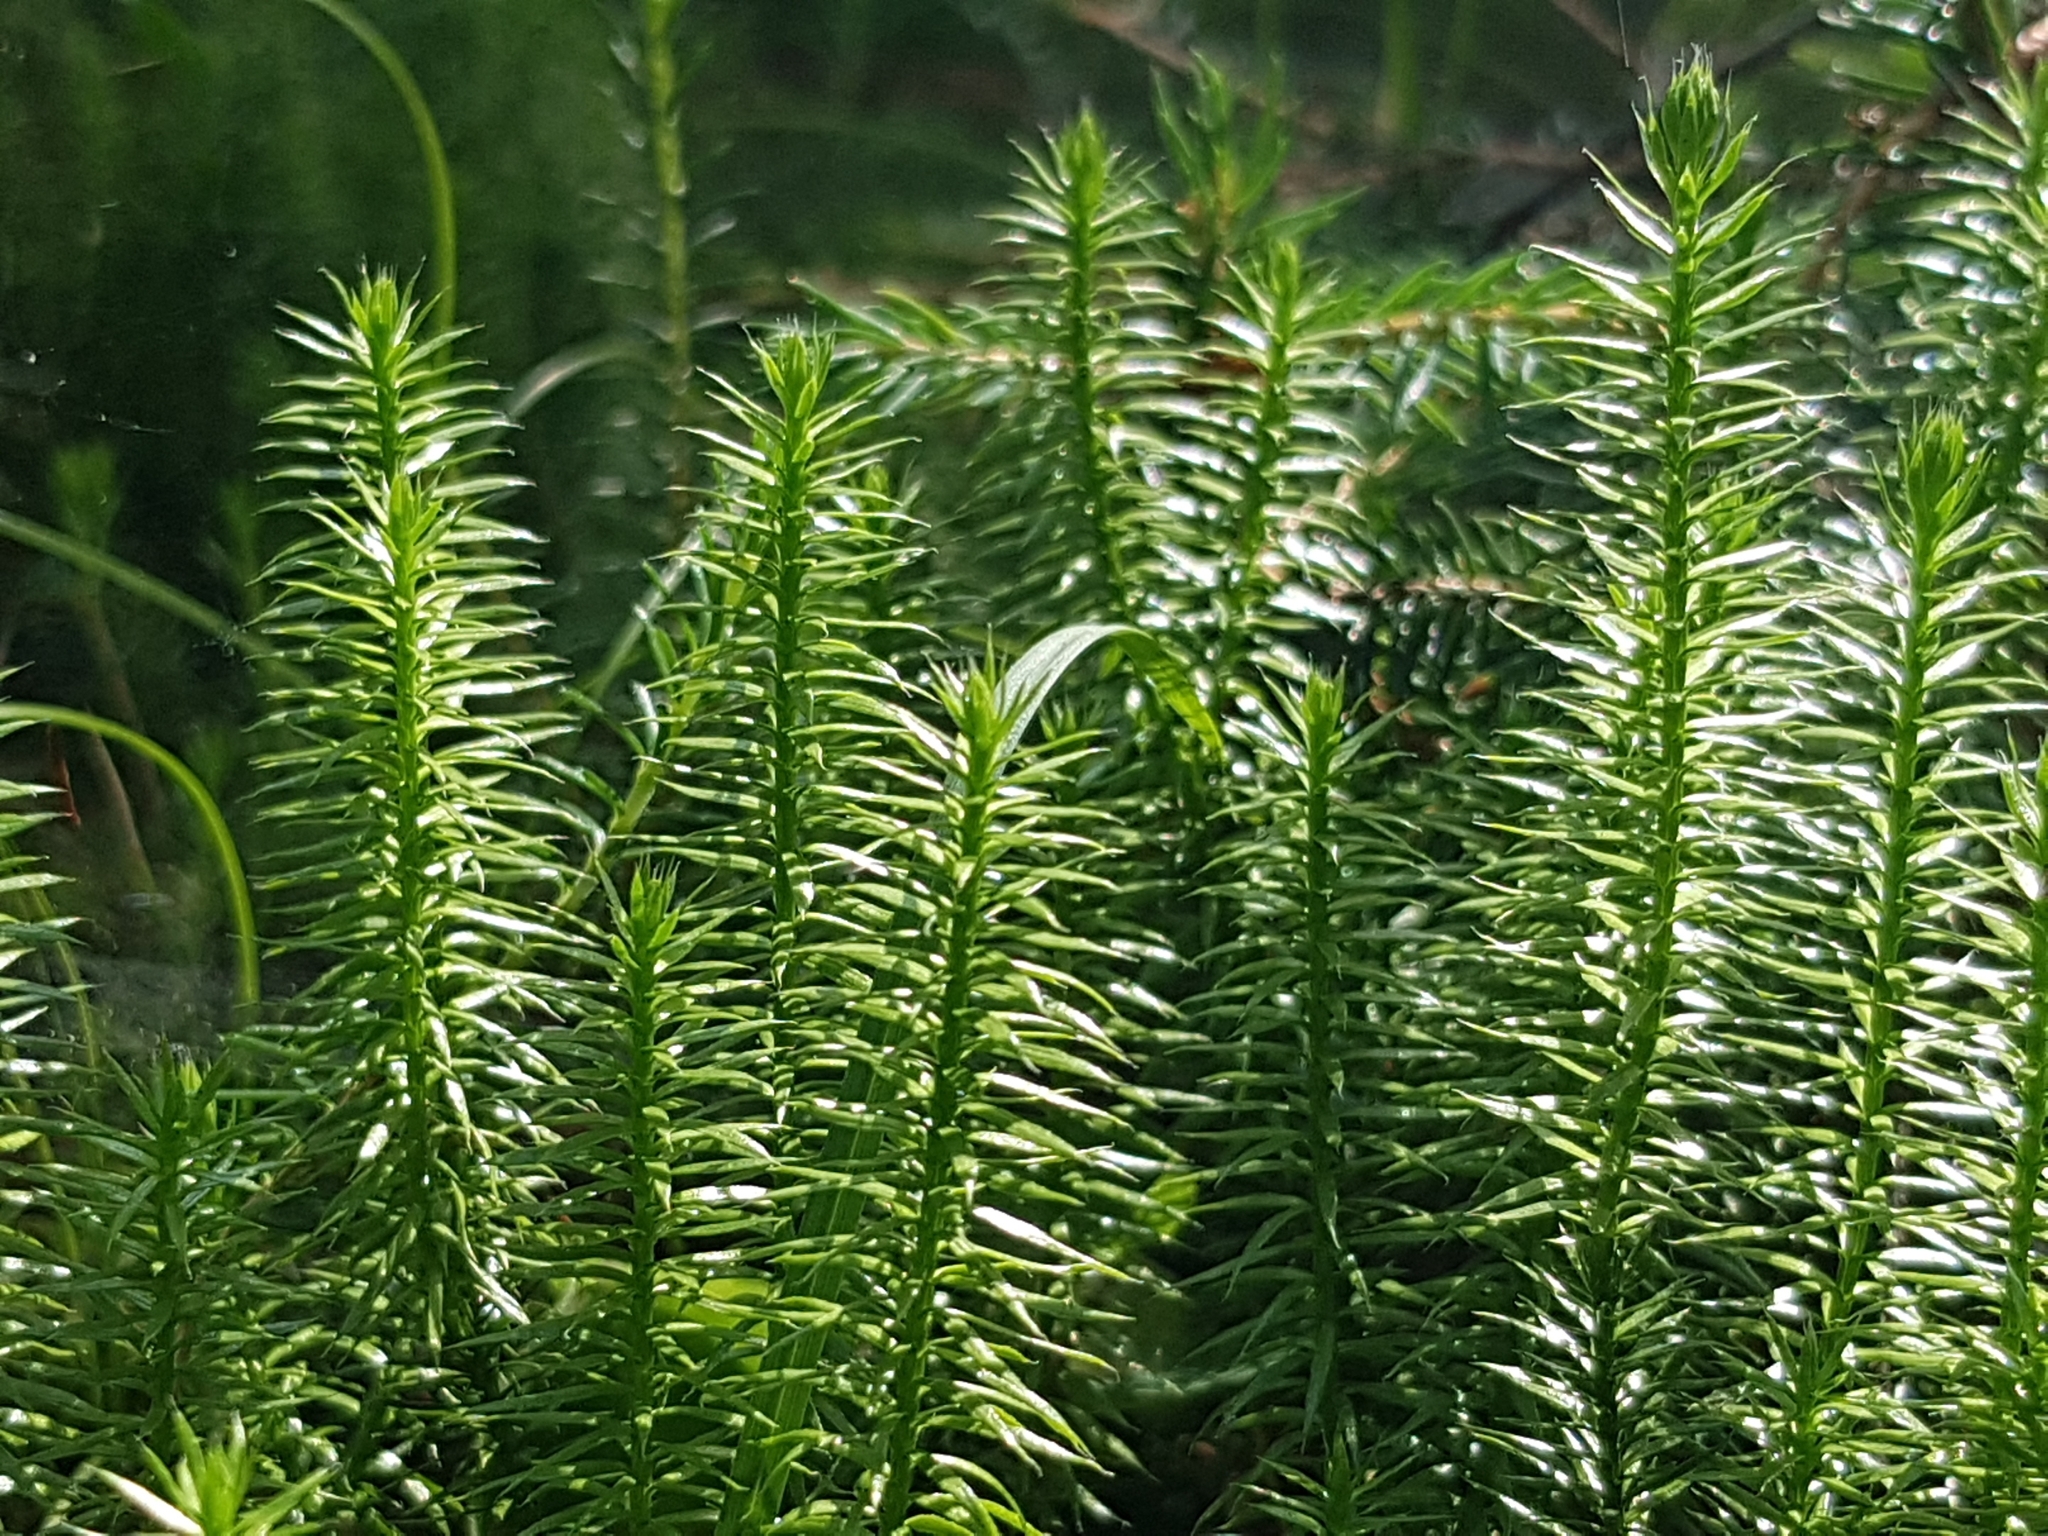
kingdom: Plantae
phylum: Tracheophyta
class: Lycopodiopsida
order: Lycopodiales
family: Lycopodiaceae
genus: Spinulum
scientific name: Spinulum annotinum
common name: Interrupted club-moss
